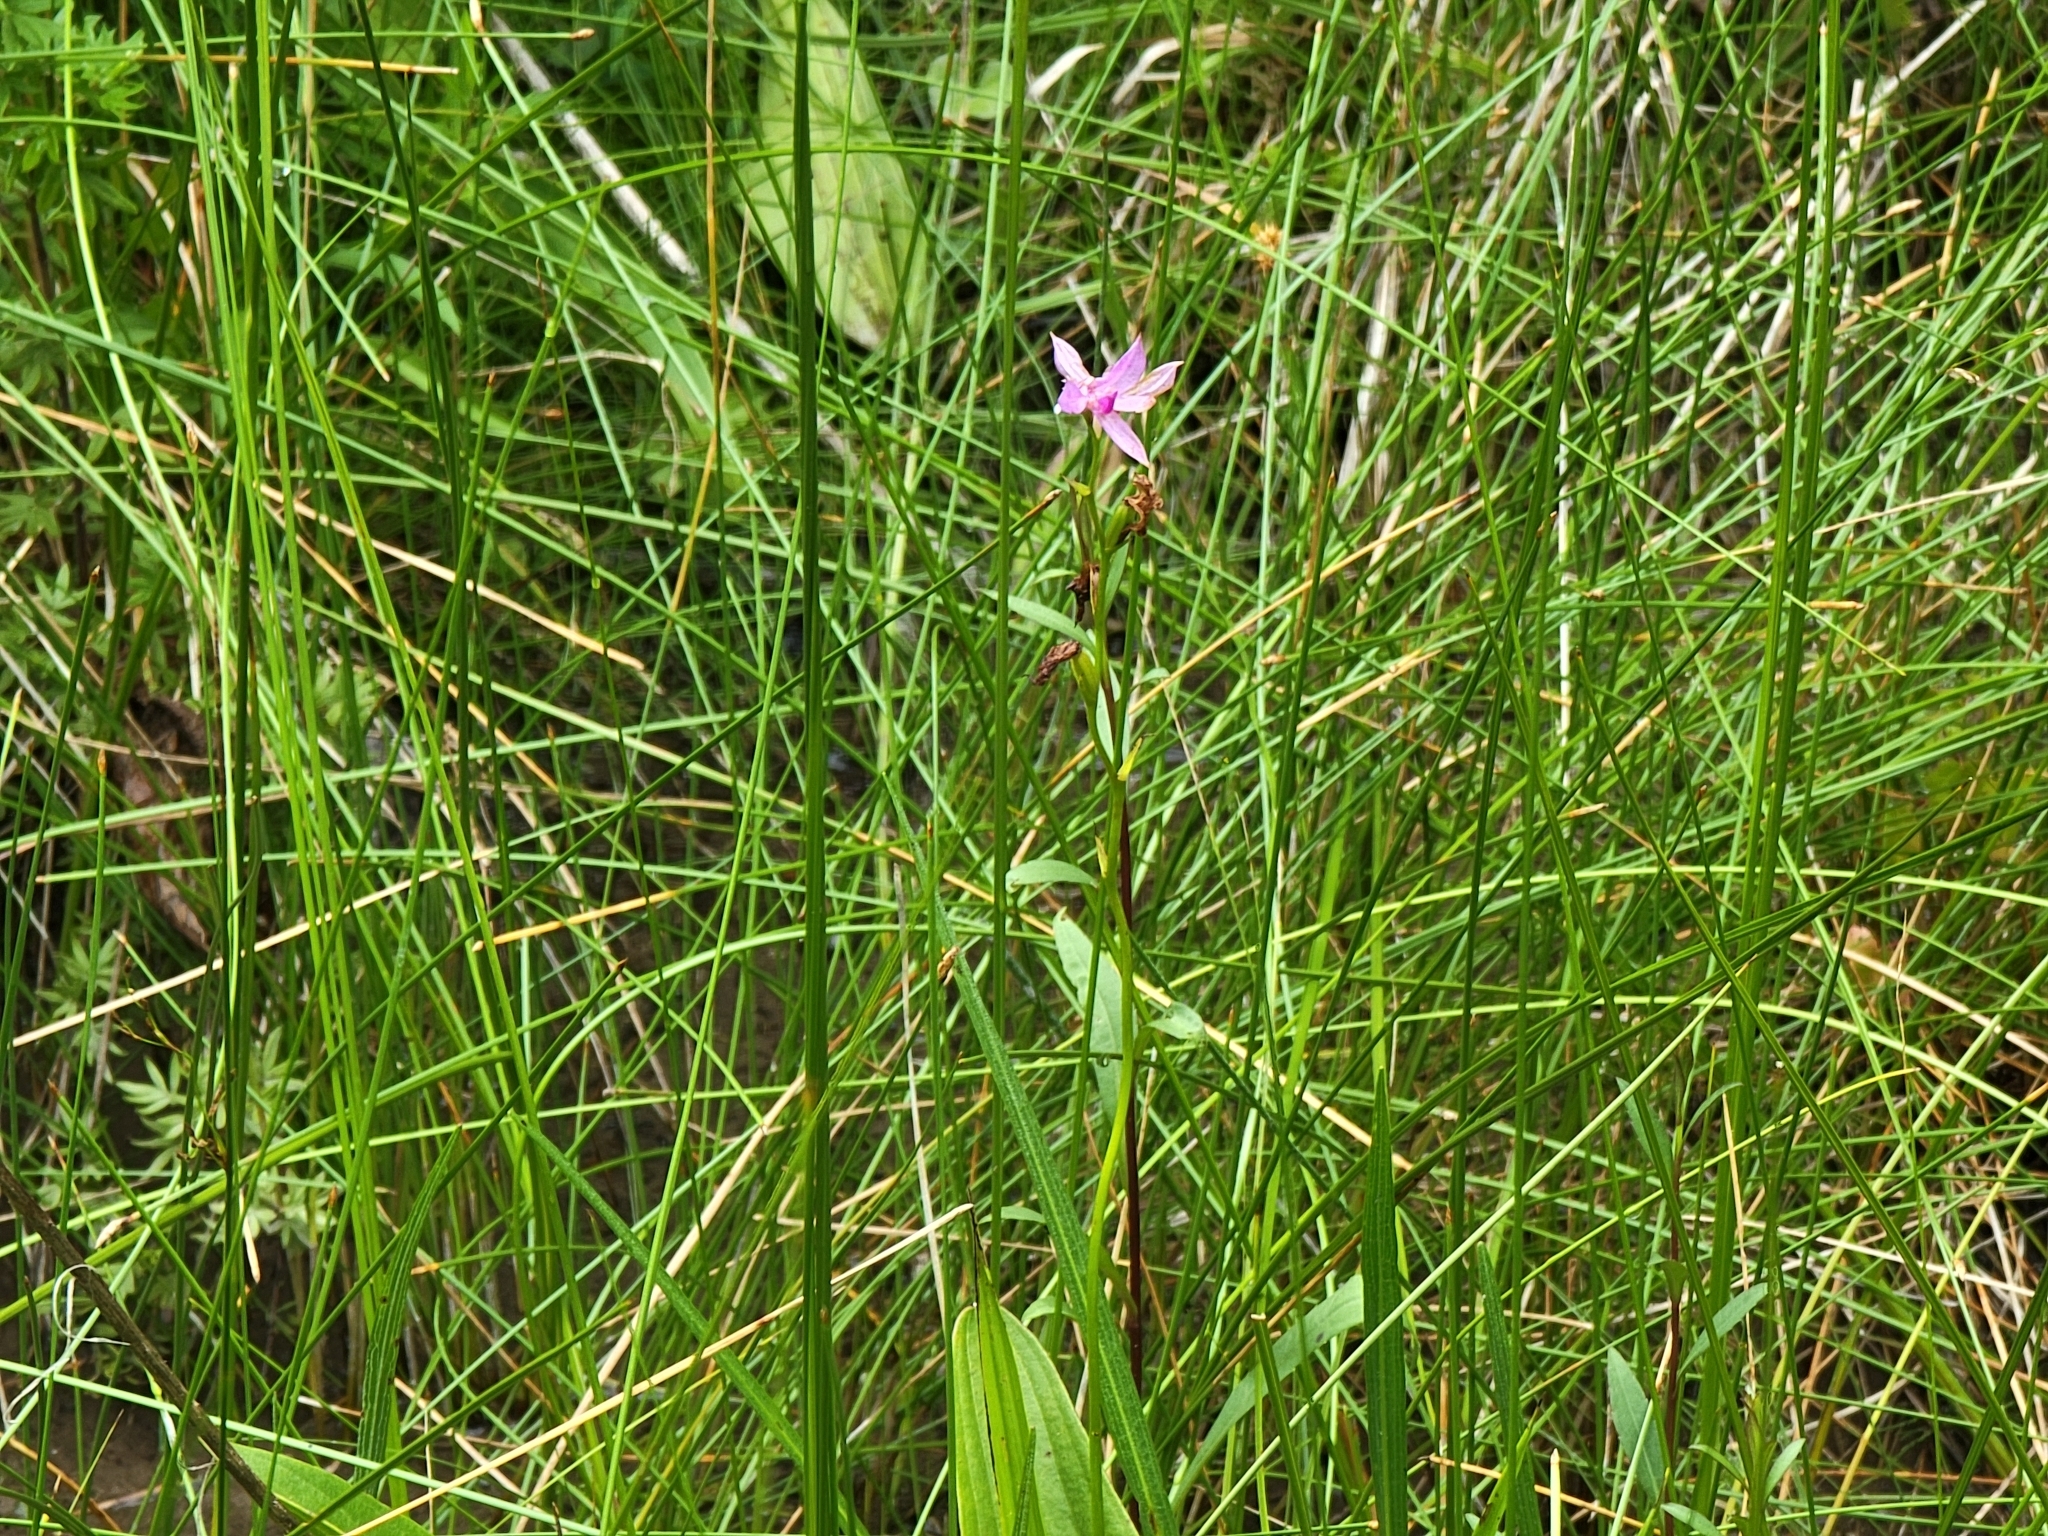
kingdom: Plantae
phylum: Tracheophyta
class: Liliopsida
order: Asparagales
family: Orchidaceae
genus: Calopogon
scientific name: Calopogon tuberosus
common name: Grass-pink
